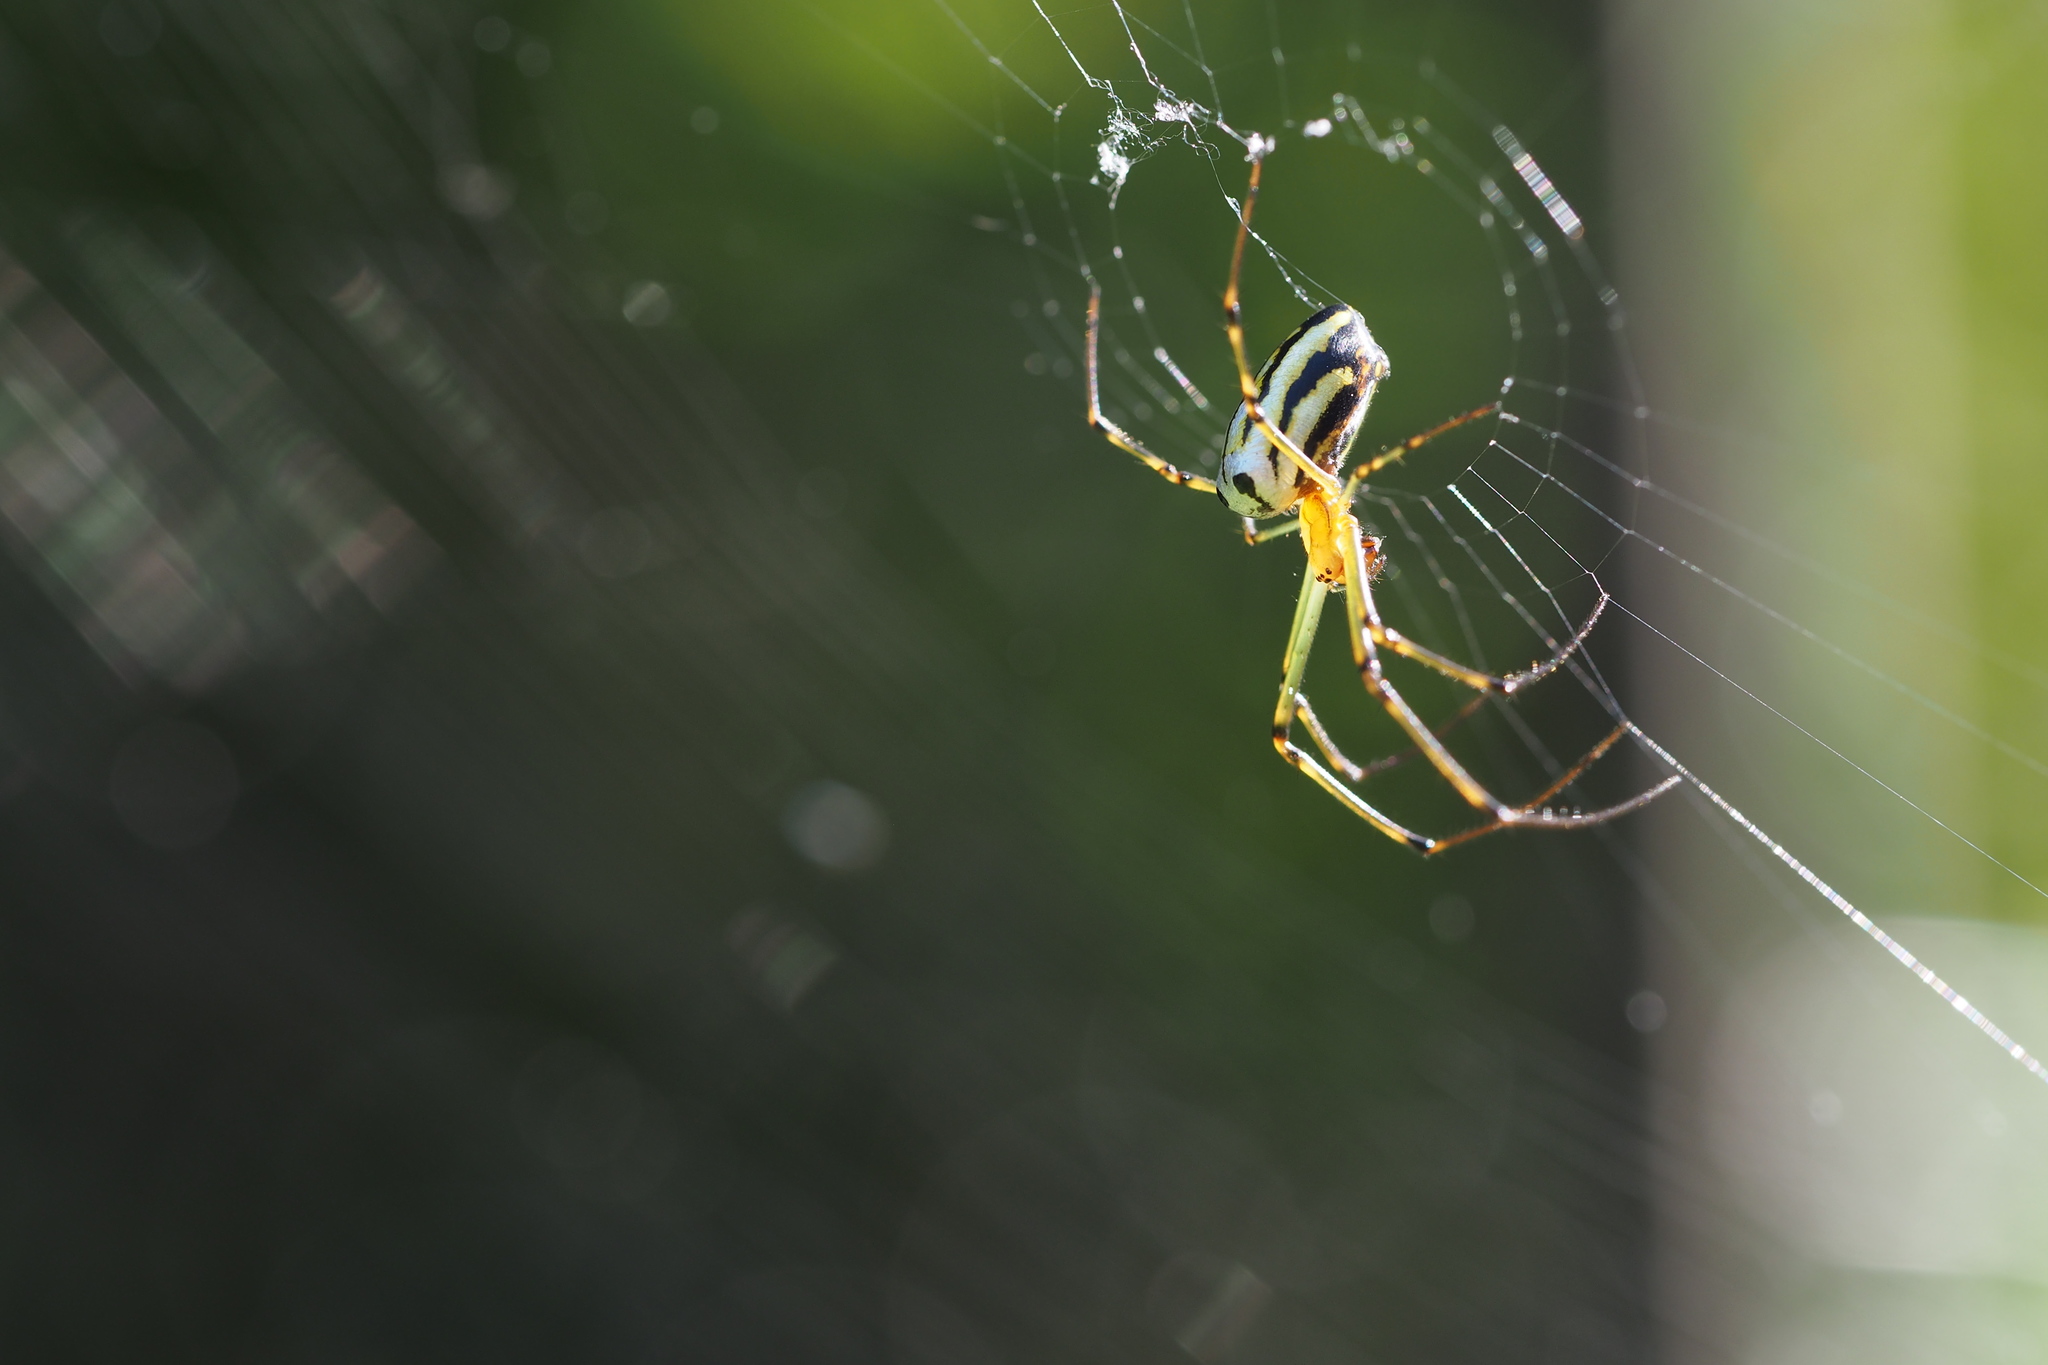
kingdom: Animalia
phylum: Arthropoda
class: Arachnida
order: Araneae
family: Tetragnathidae
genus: Leucauge
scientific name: Leucauge blanda
